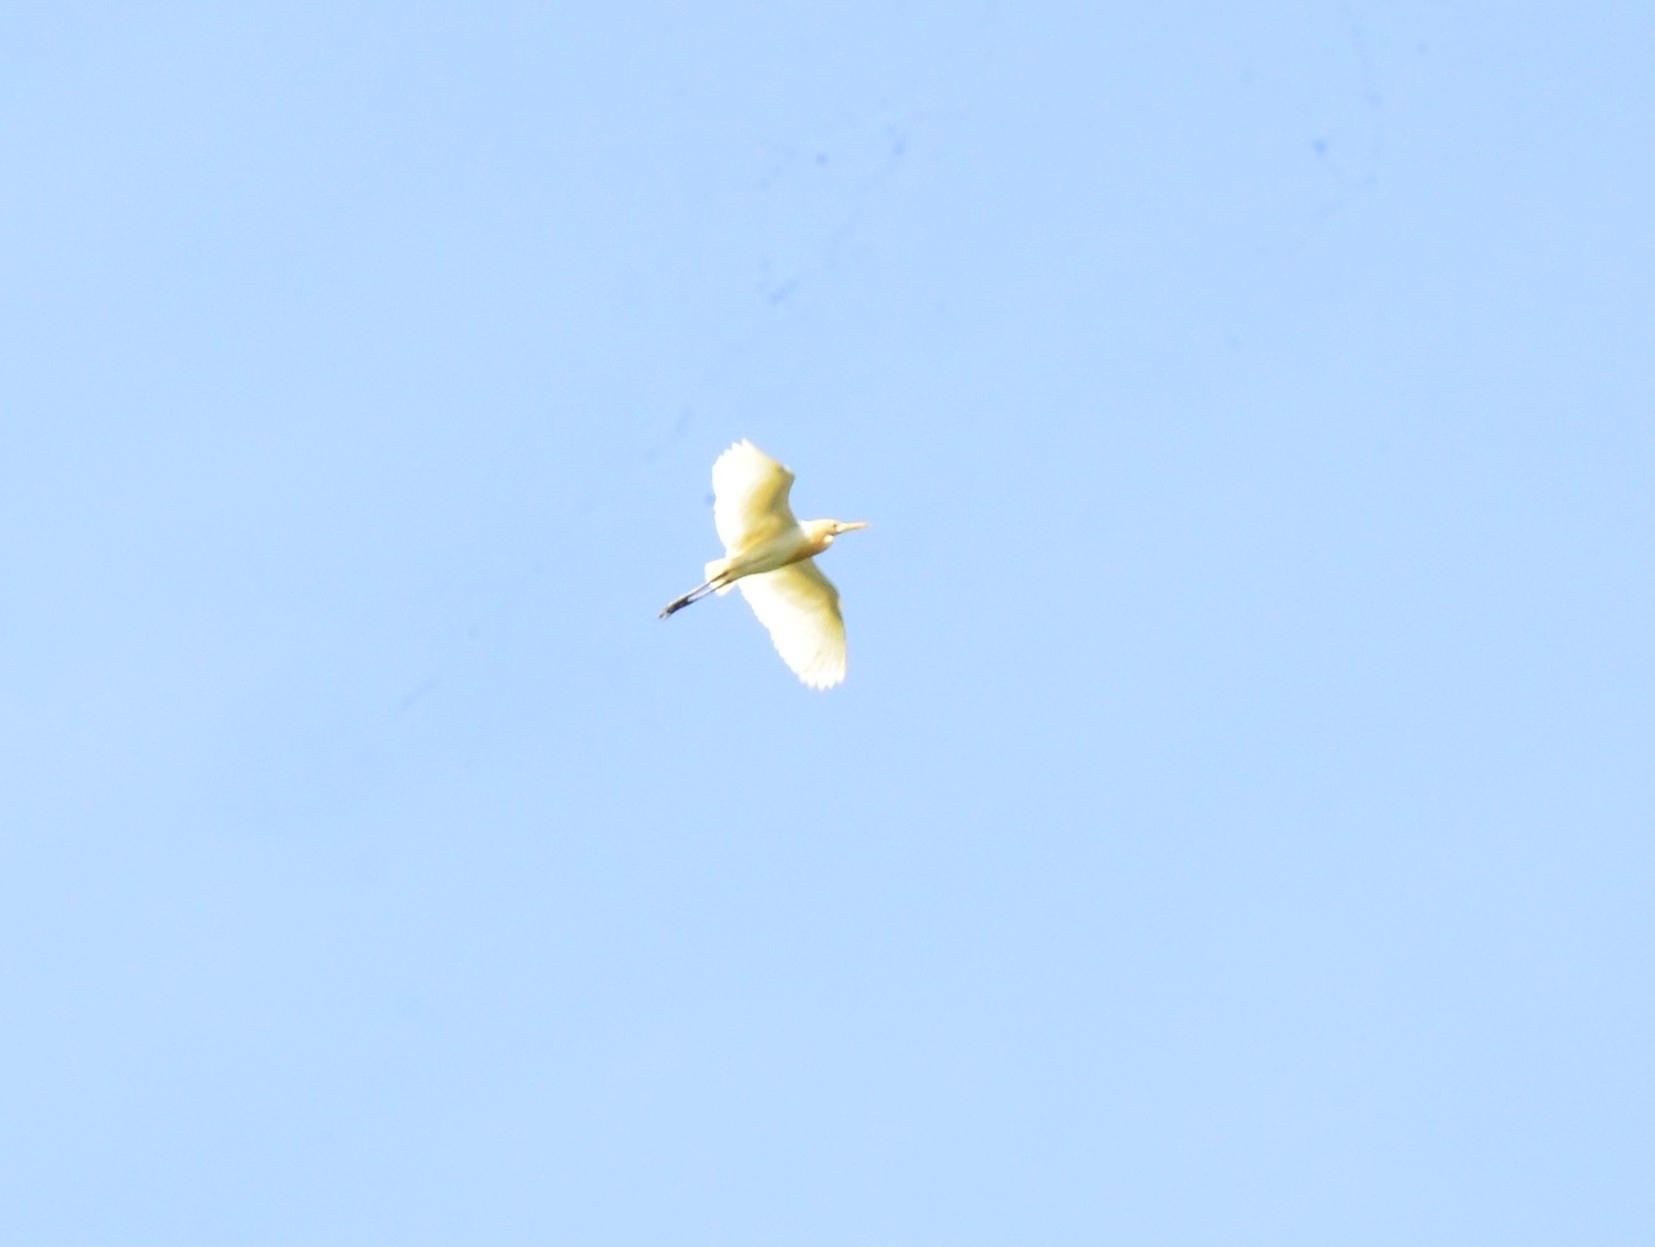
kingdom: Animalia
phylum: Chordata
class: Aves
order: Pelecaniformes
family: Ardeidae
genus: Bubulcus
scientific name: Bubulcus coromandus
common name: Eastern cattle egret
